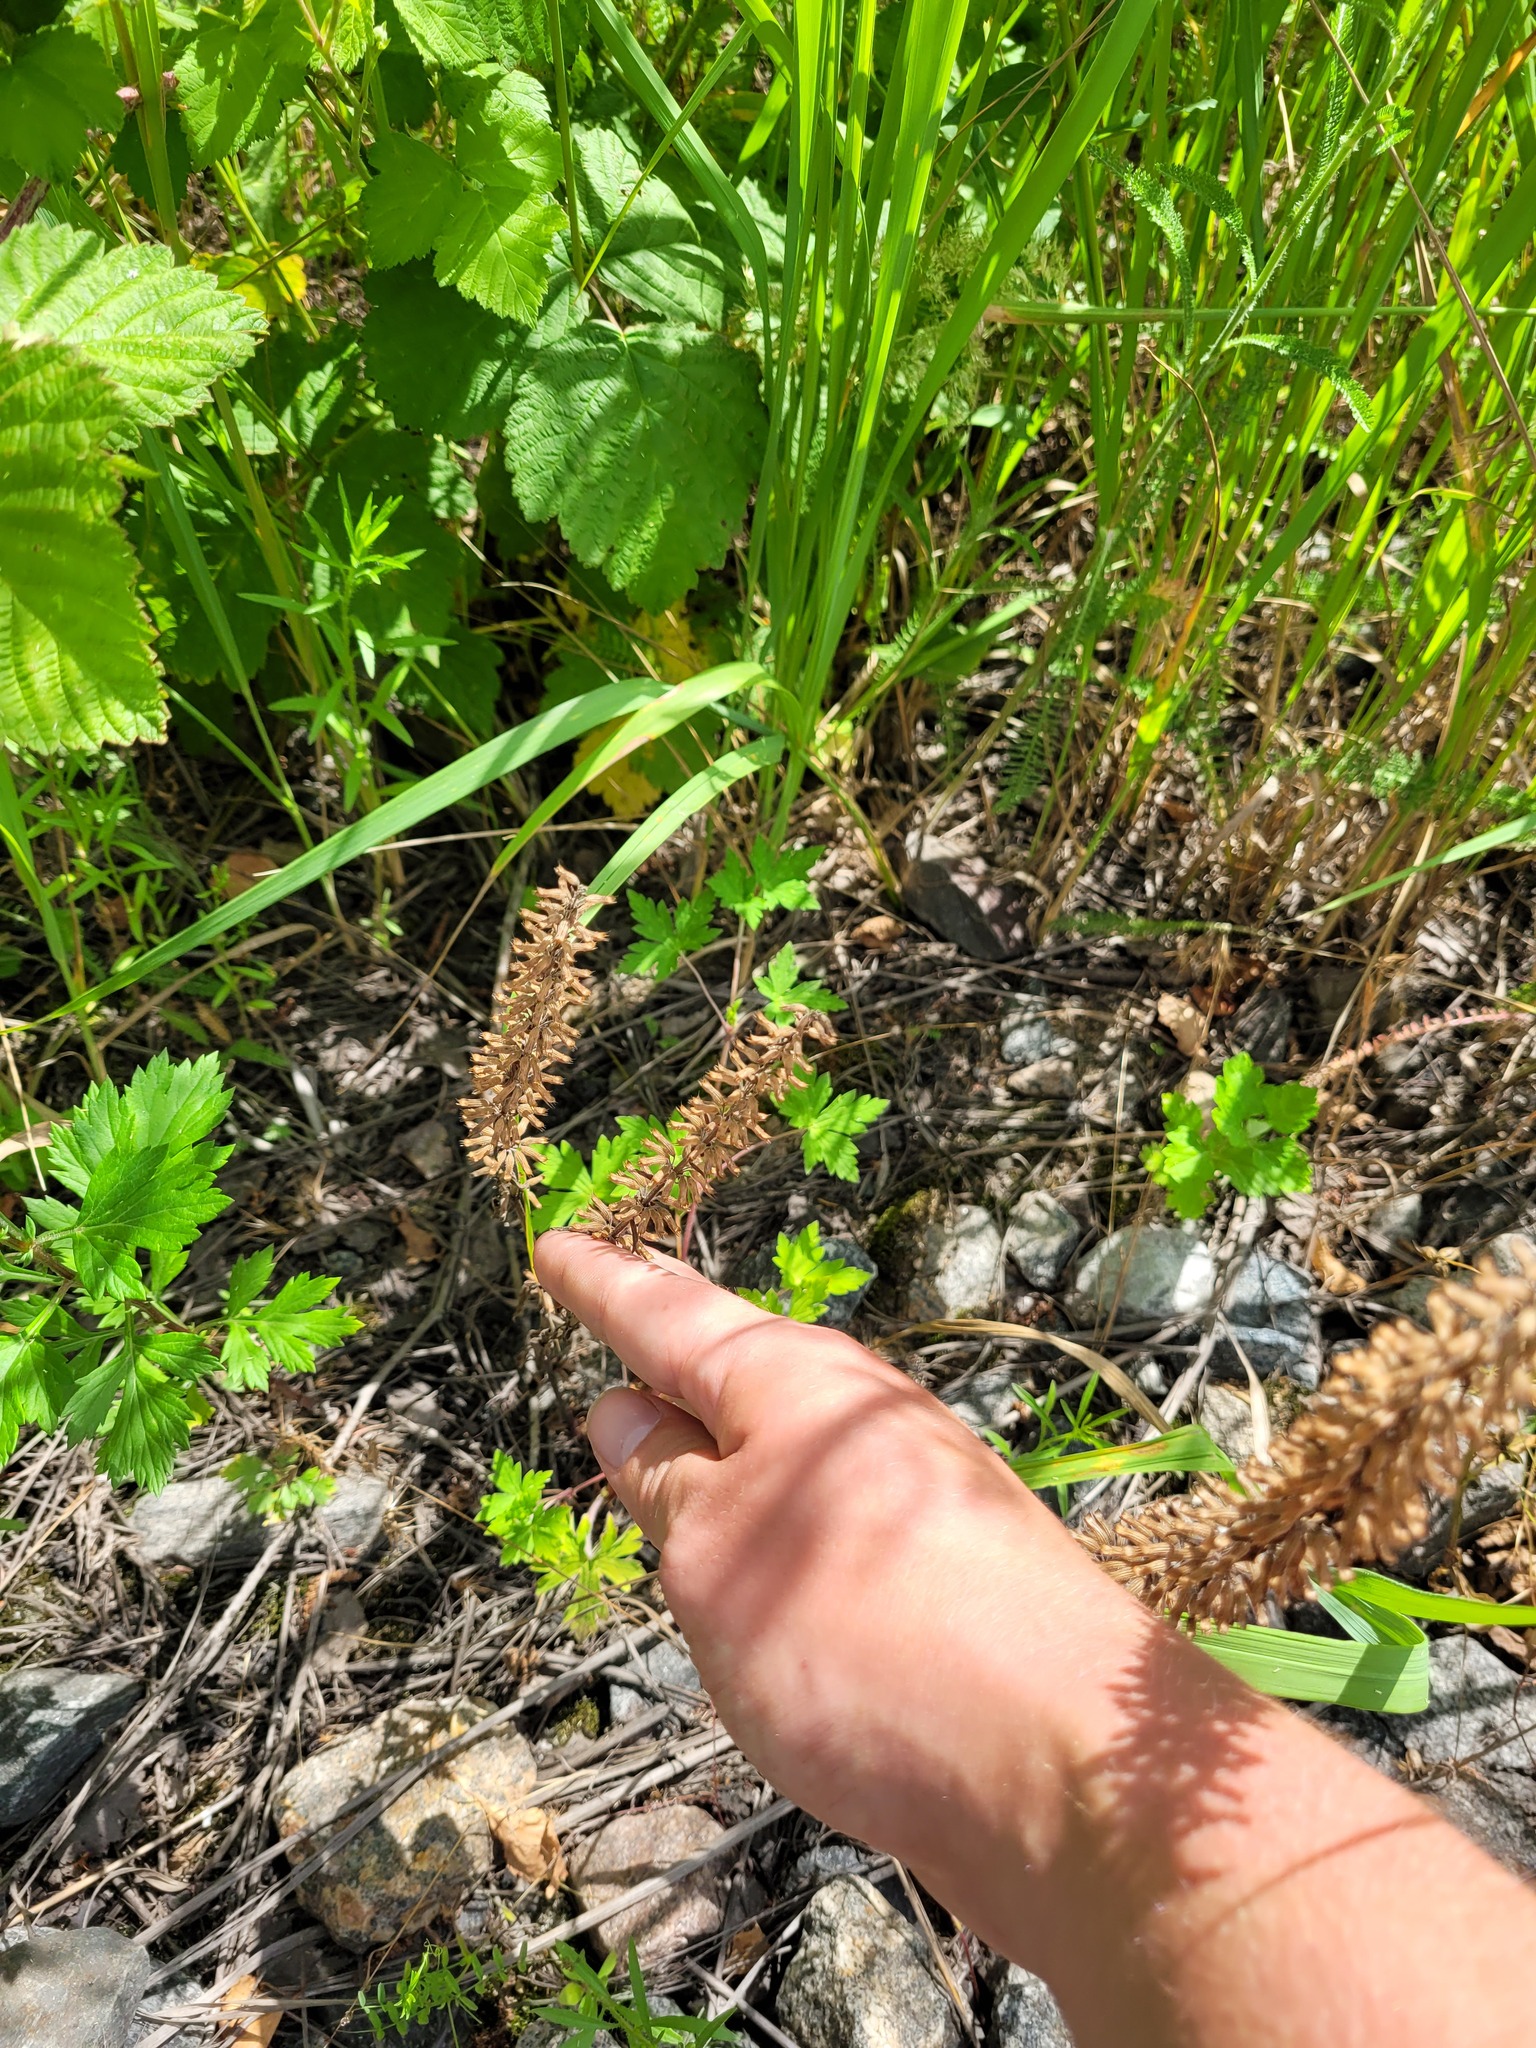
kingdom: Plantae
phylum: Tracheophyta
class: Magnoliopsida
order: Lamiales
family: Lamiaceae
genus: Dracocephalum
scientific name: Dracocephalum thymiflorum
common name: Thymeleaf dragonhead
